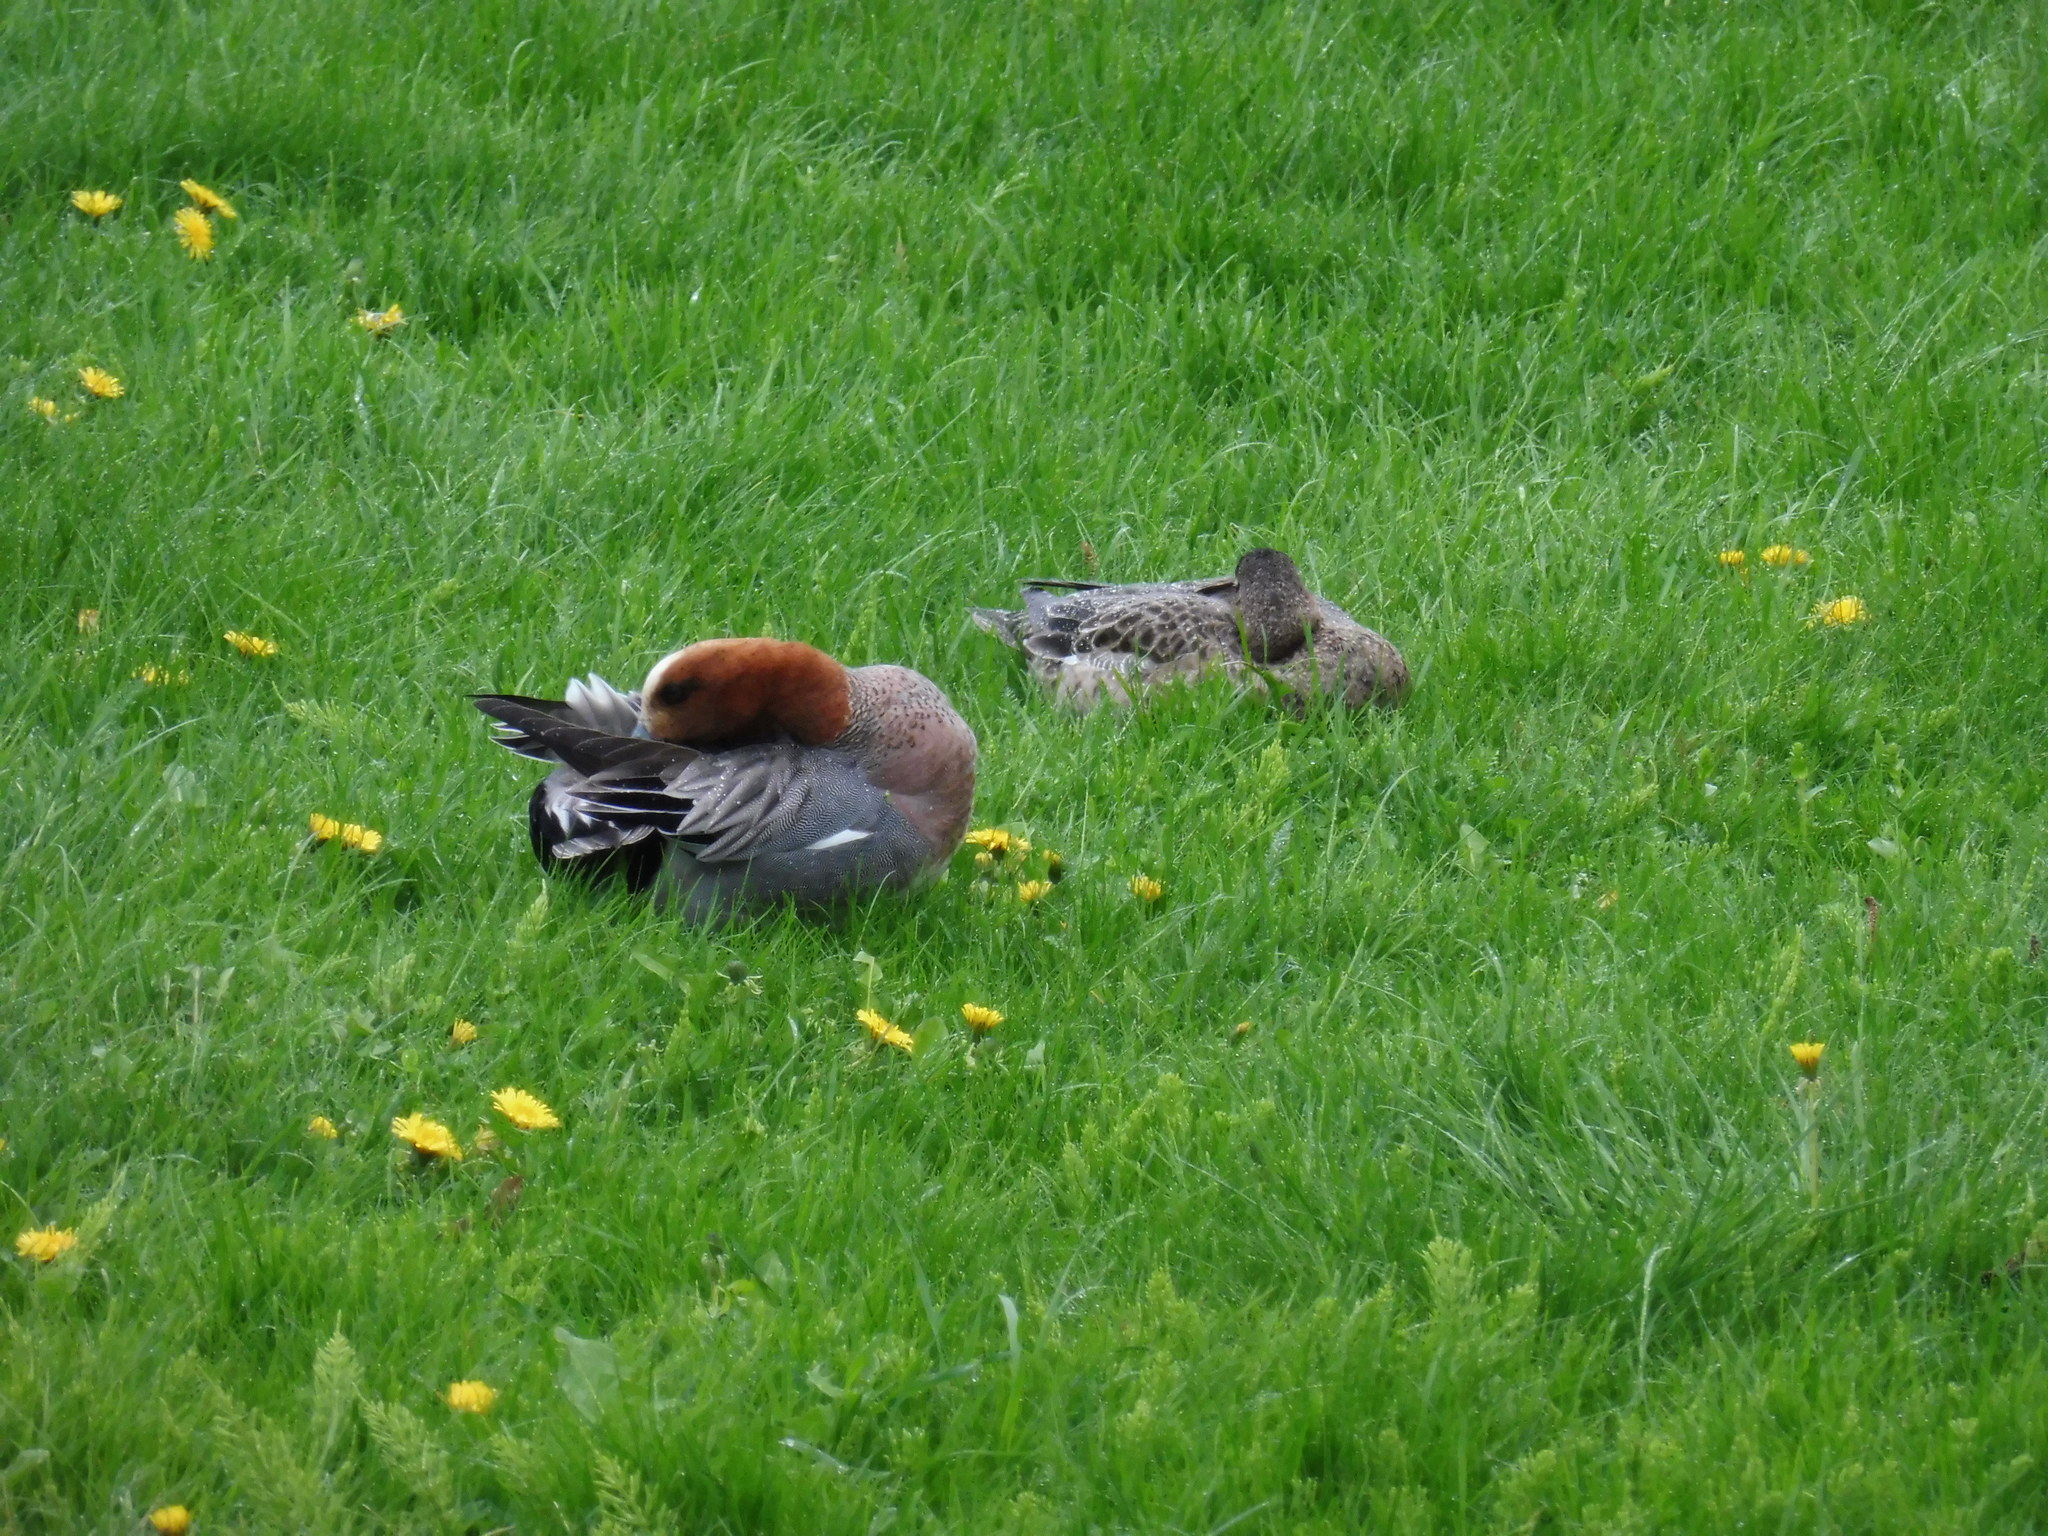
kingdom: Animalia
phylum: Chordata
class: Aves
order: Anseriformes
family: Anatidae
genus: Mareca
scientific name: Mareca penelope
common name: Eurasian wigeon
